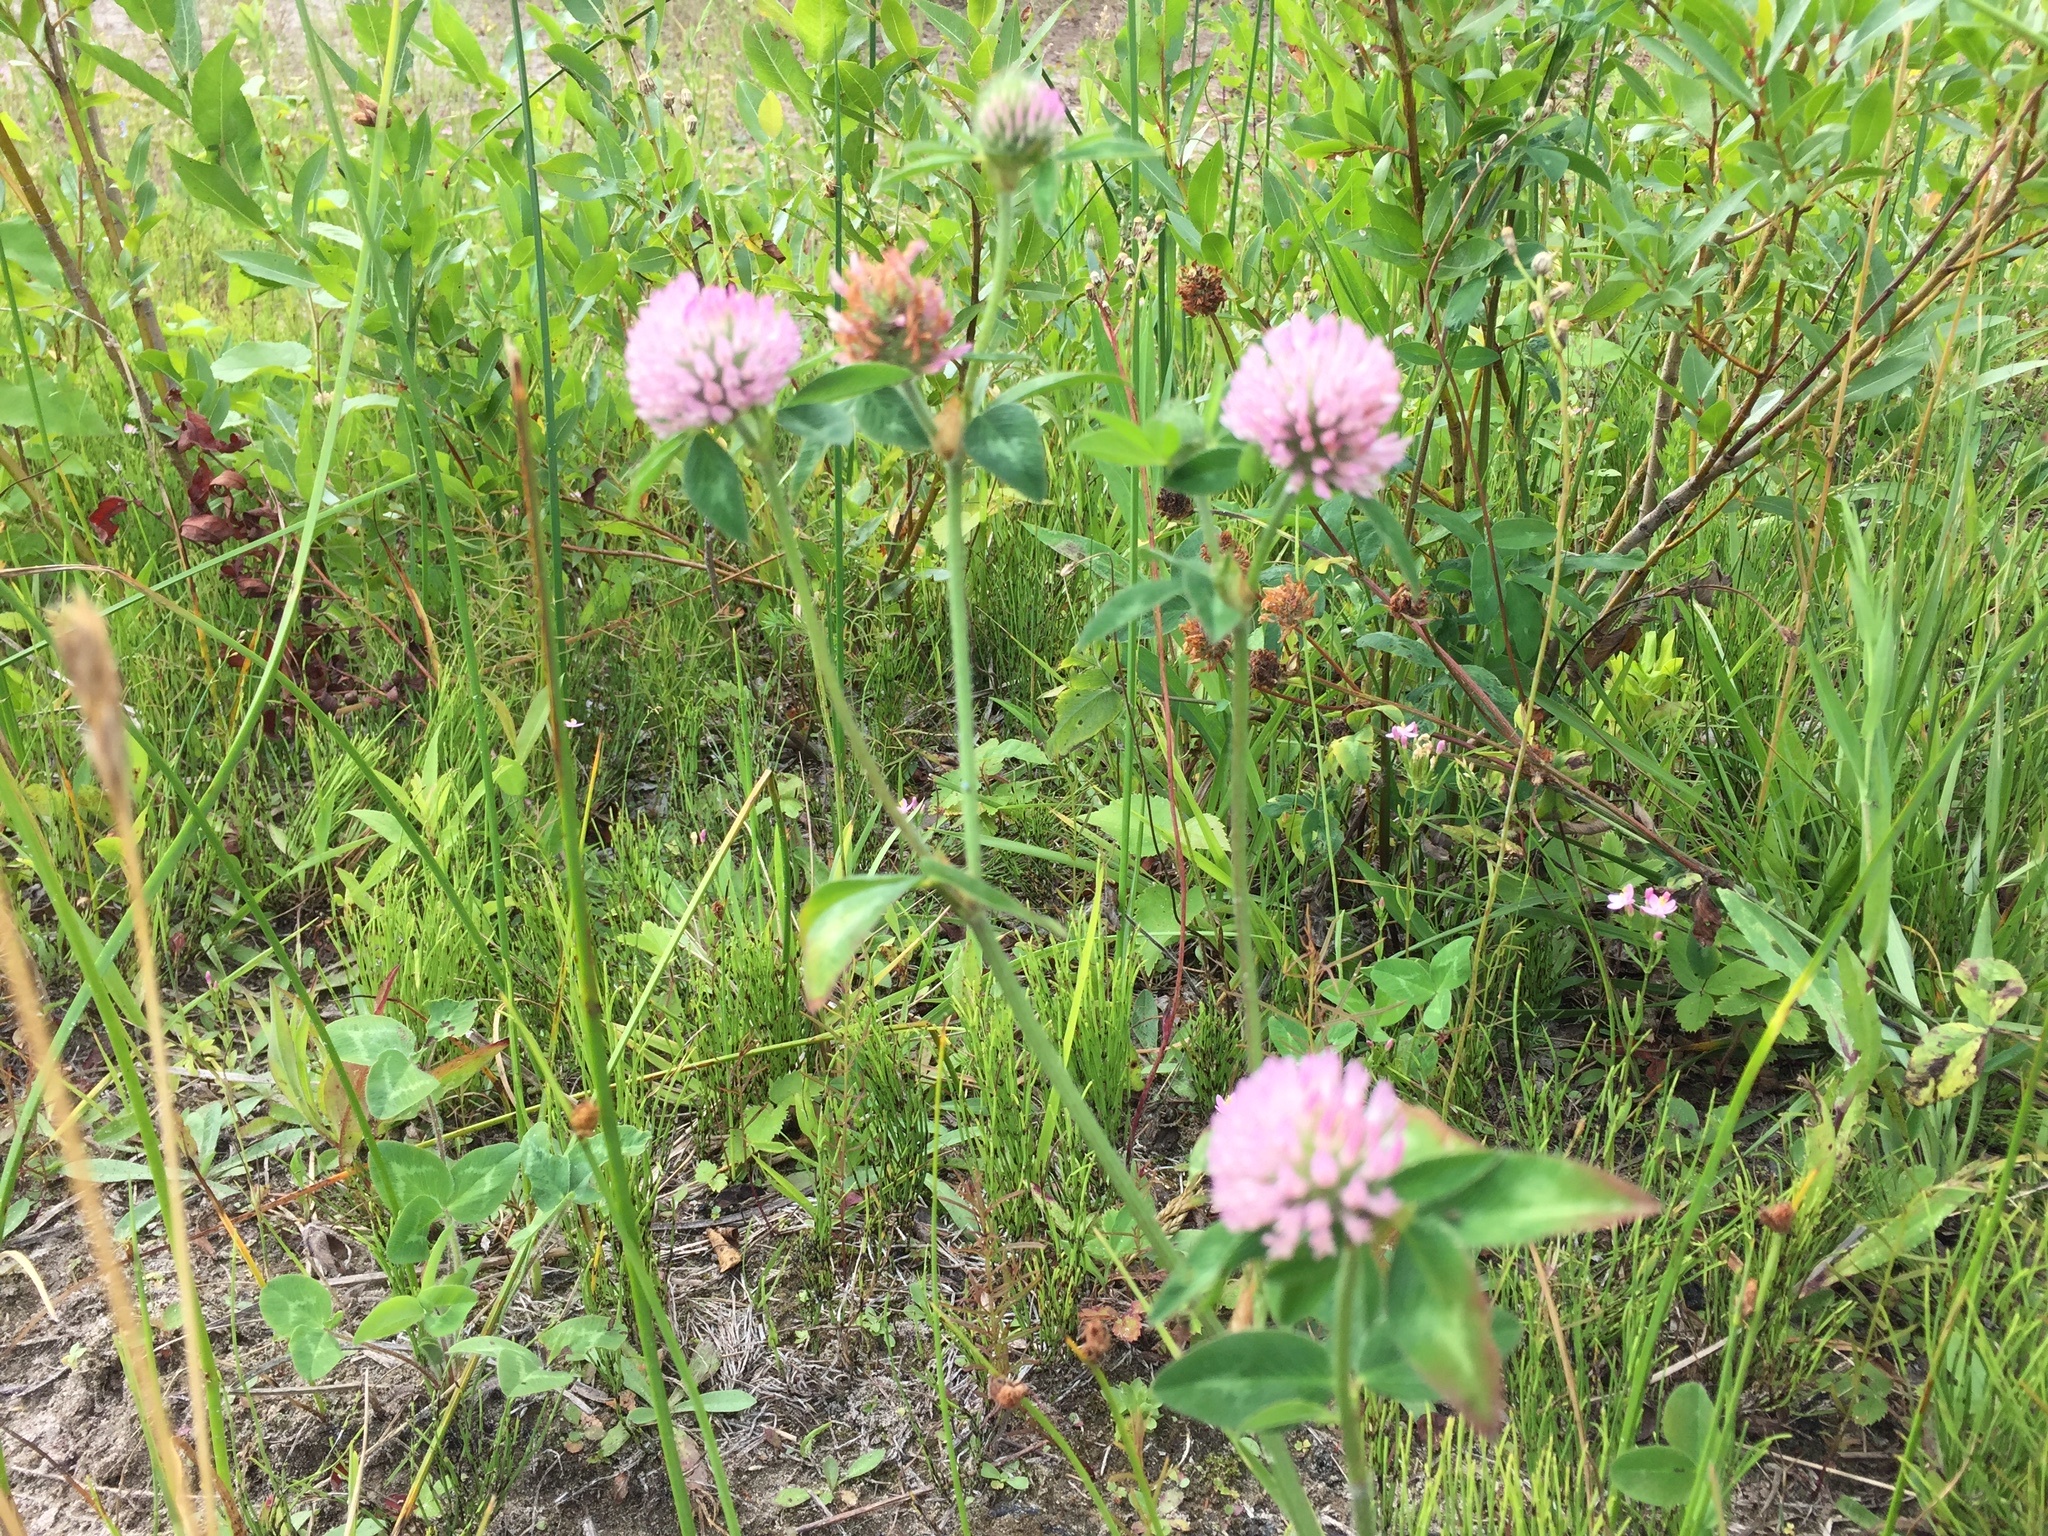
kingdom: Plantae
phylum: Tracheophyta
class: Magnoliopsida
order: Fabales
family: Fabaceae
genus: Trifolium
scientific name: Trifolium pratense
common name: Red clover
